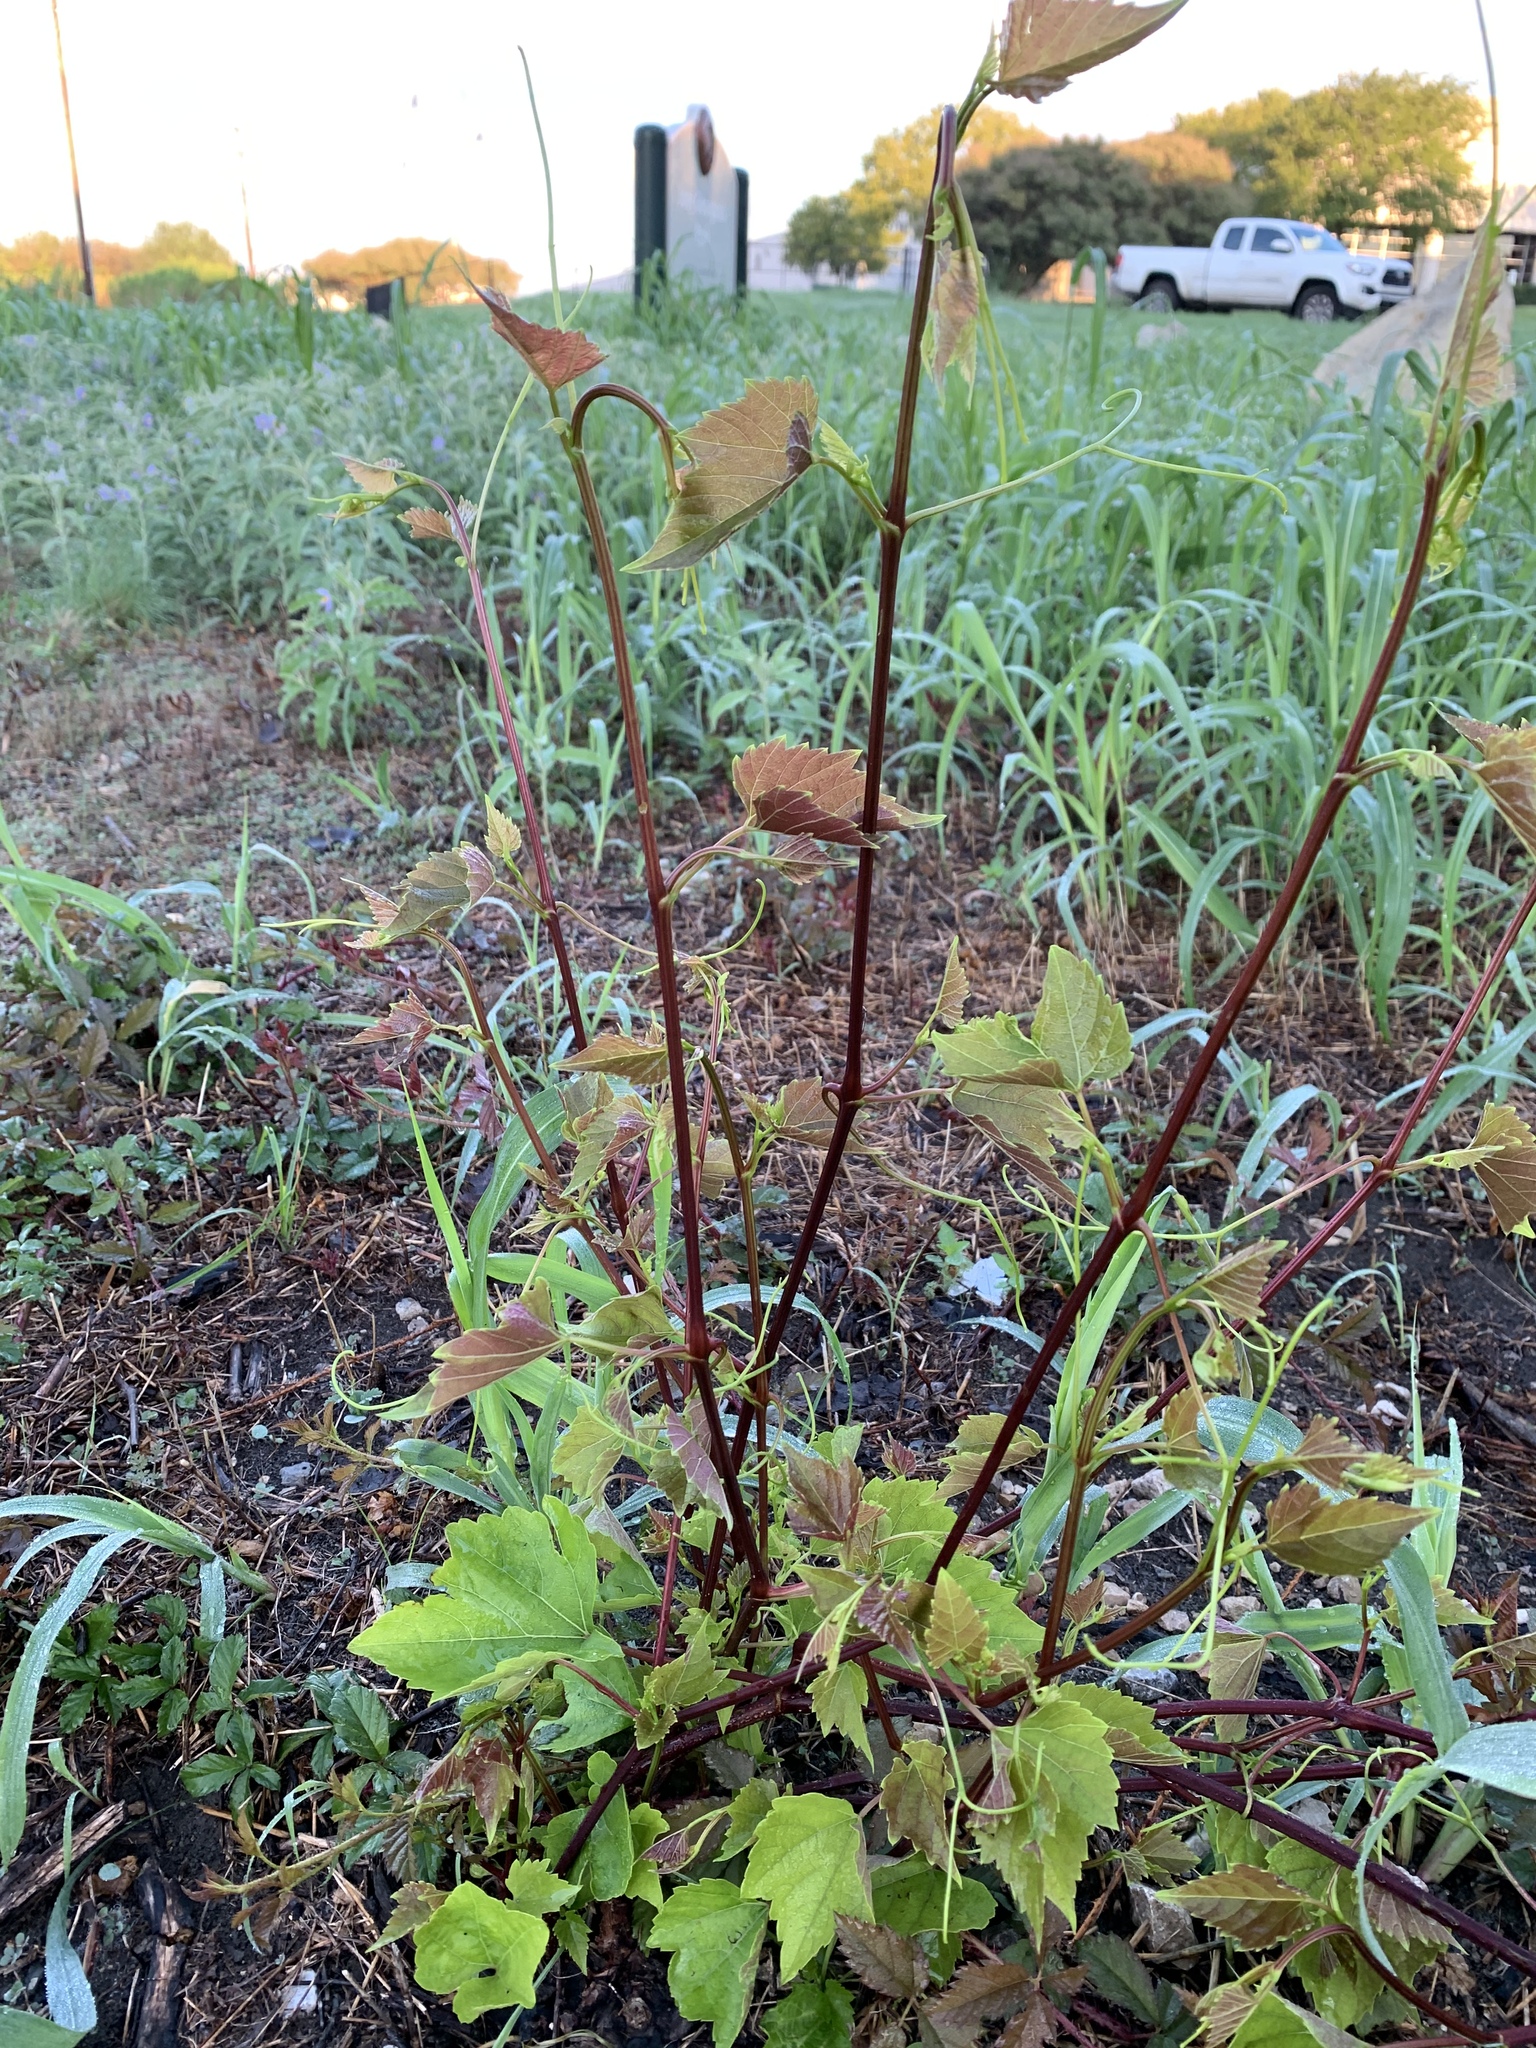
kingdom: Plantae
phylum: Tracheophyta
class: Magnoliopsida
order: Vitales
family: Vitaceae
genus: Ampelopsis
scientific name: Ampelopsis cordata
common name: Heart-leaf ampelopsis
